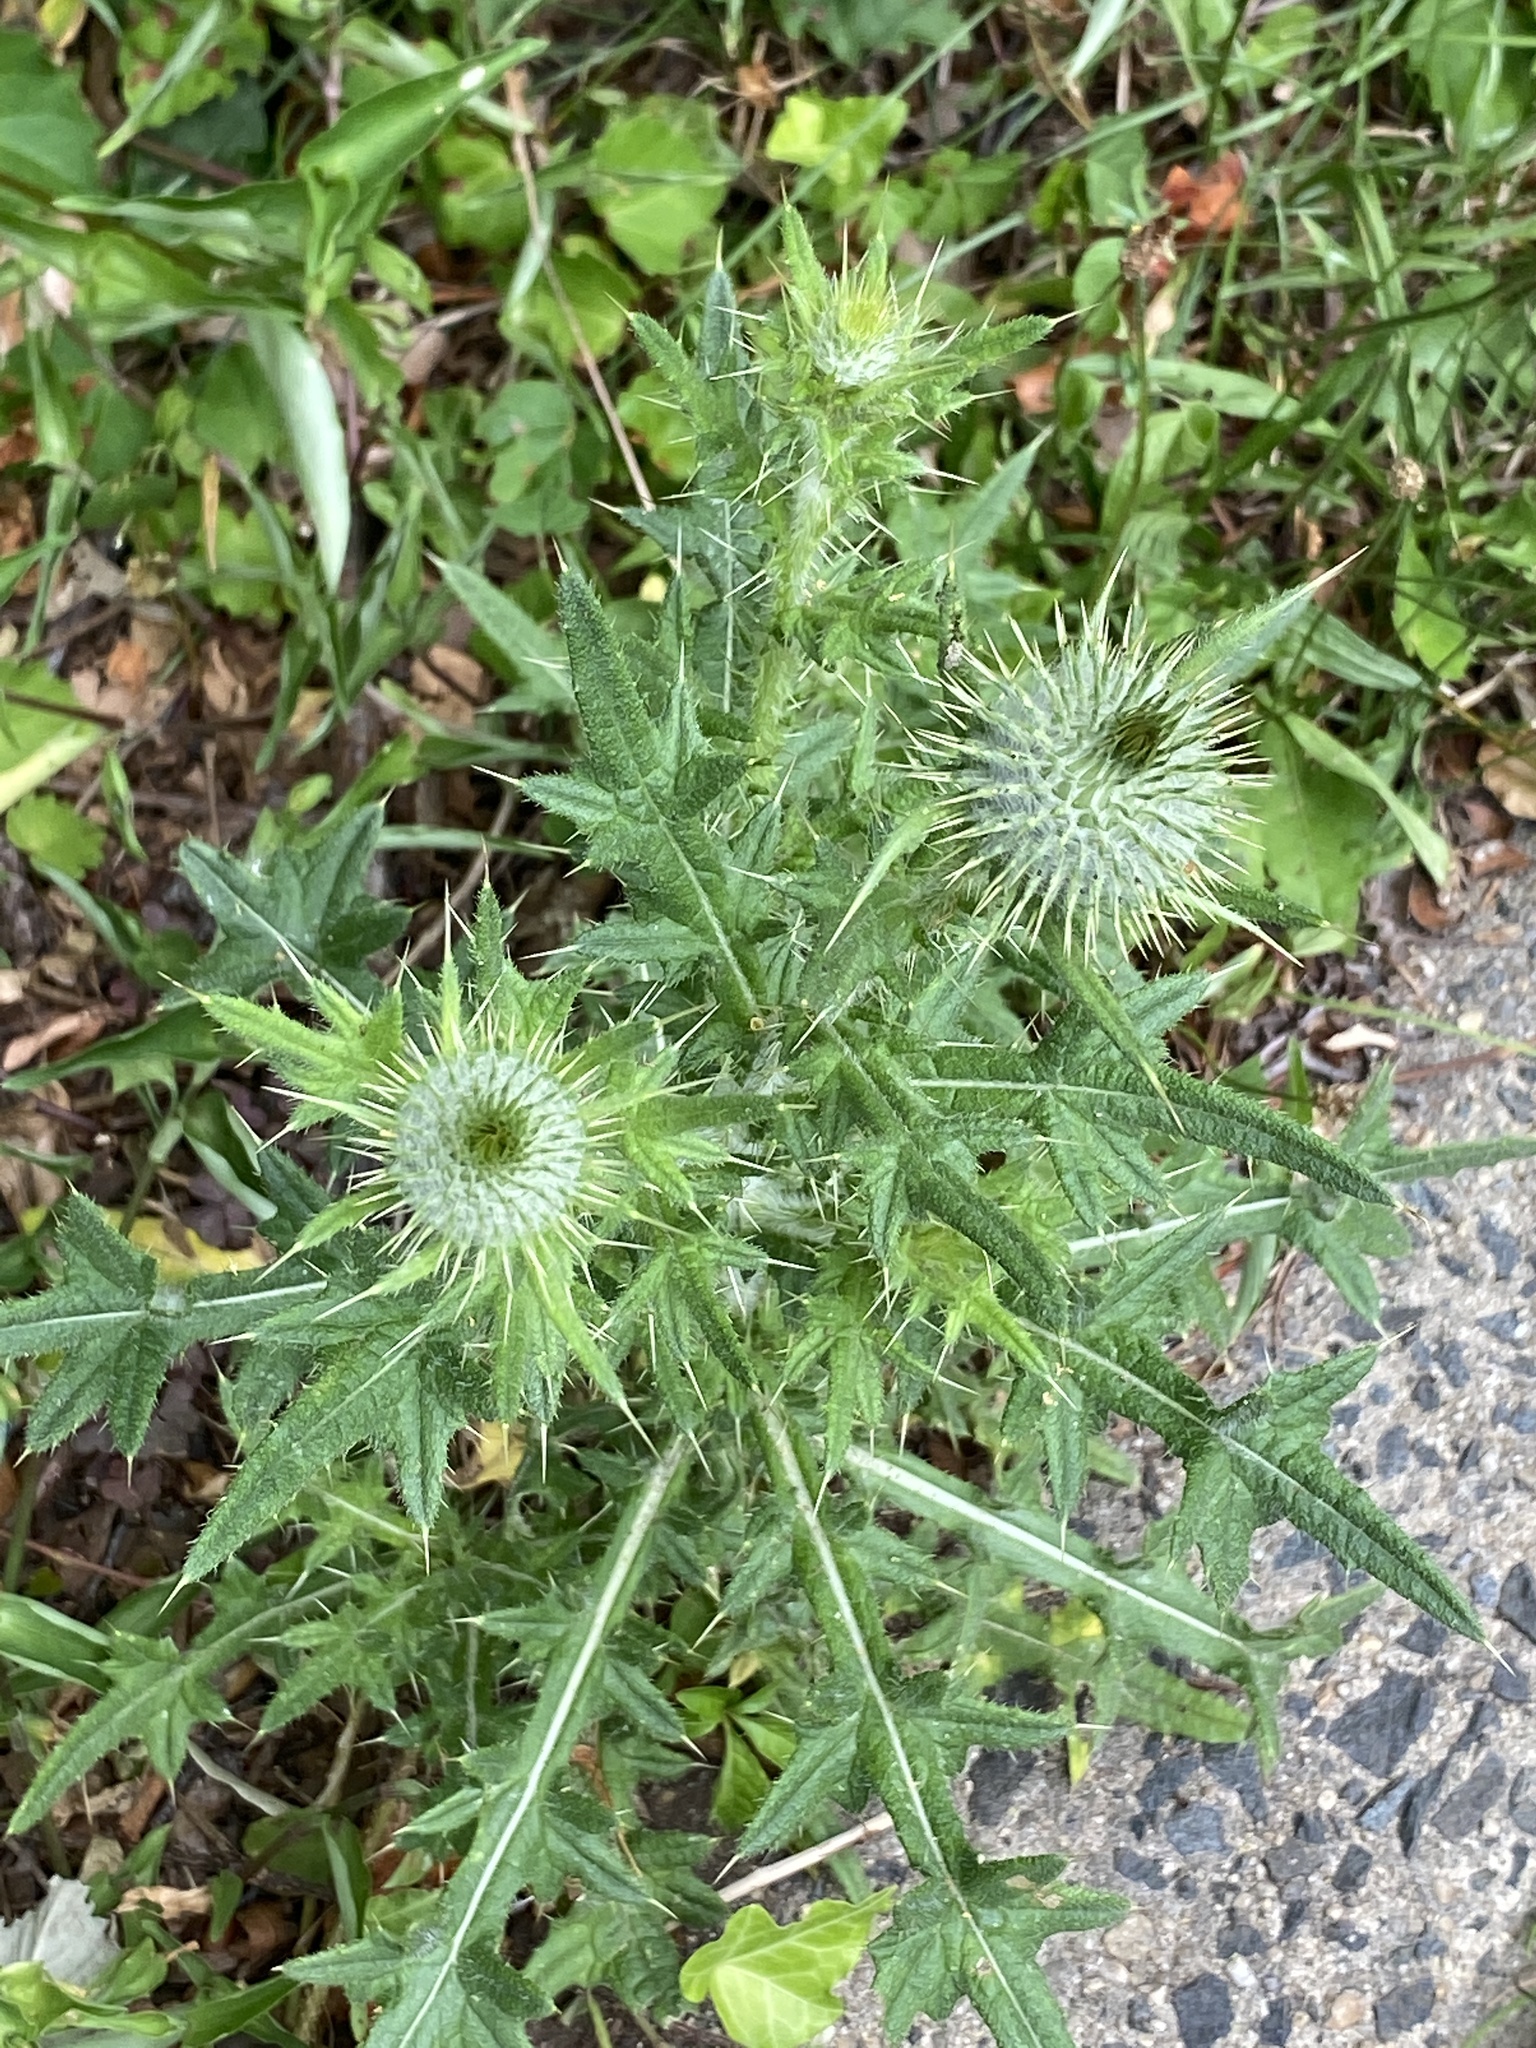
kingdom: Plantae
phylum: Tracheophyta
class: Magnoliopsida
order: Asterales
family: Asteraceae
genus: Cirsium
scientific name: Cirsium vulgare
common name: Bull thistle
